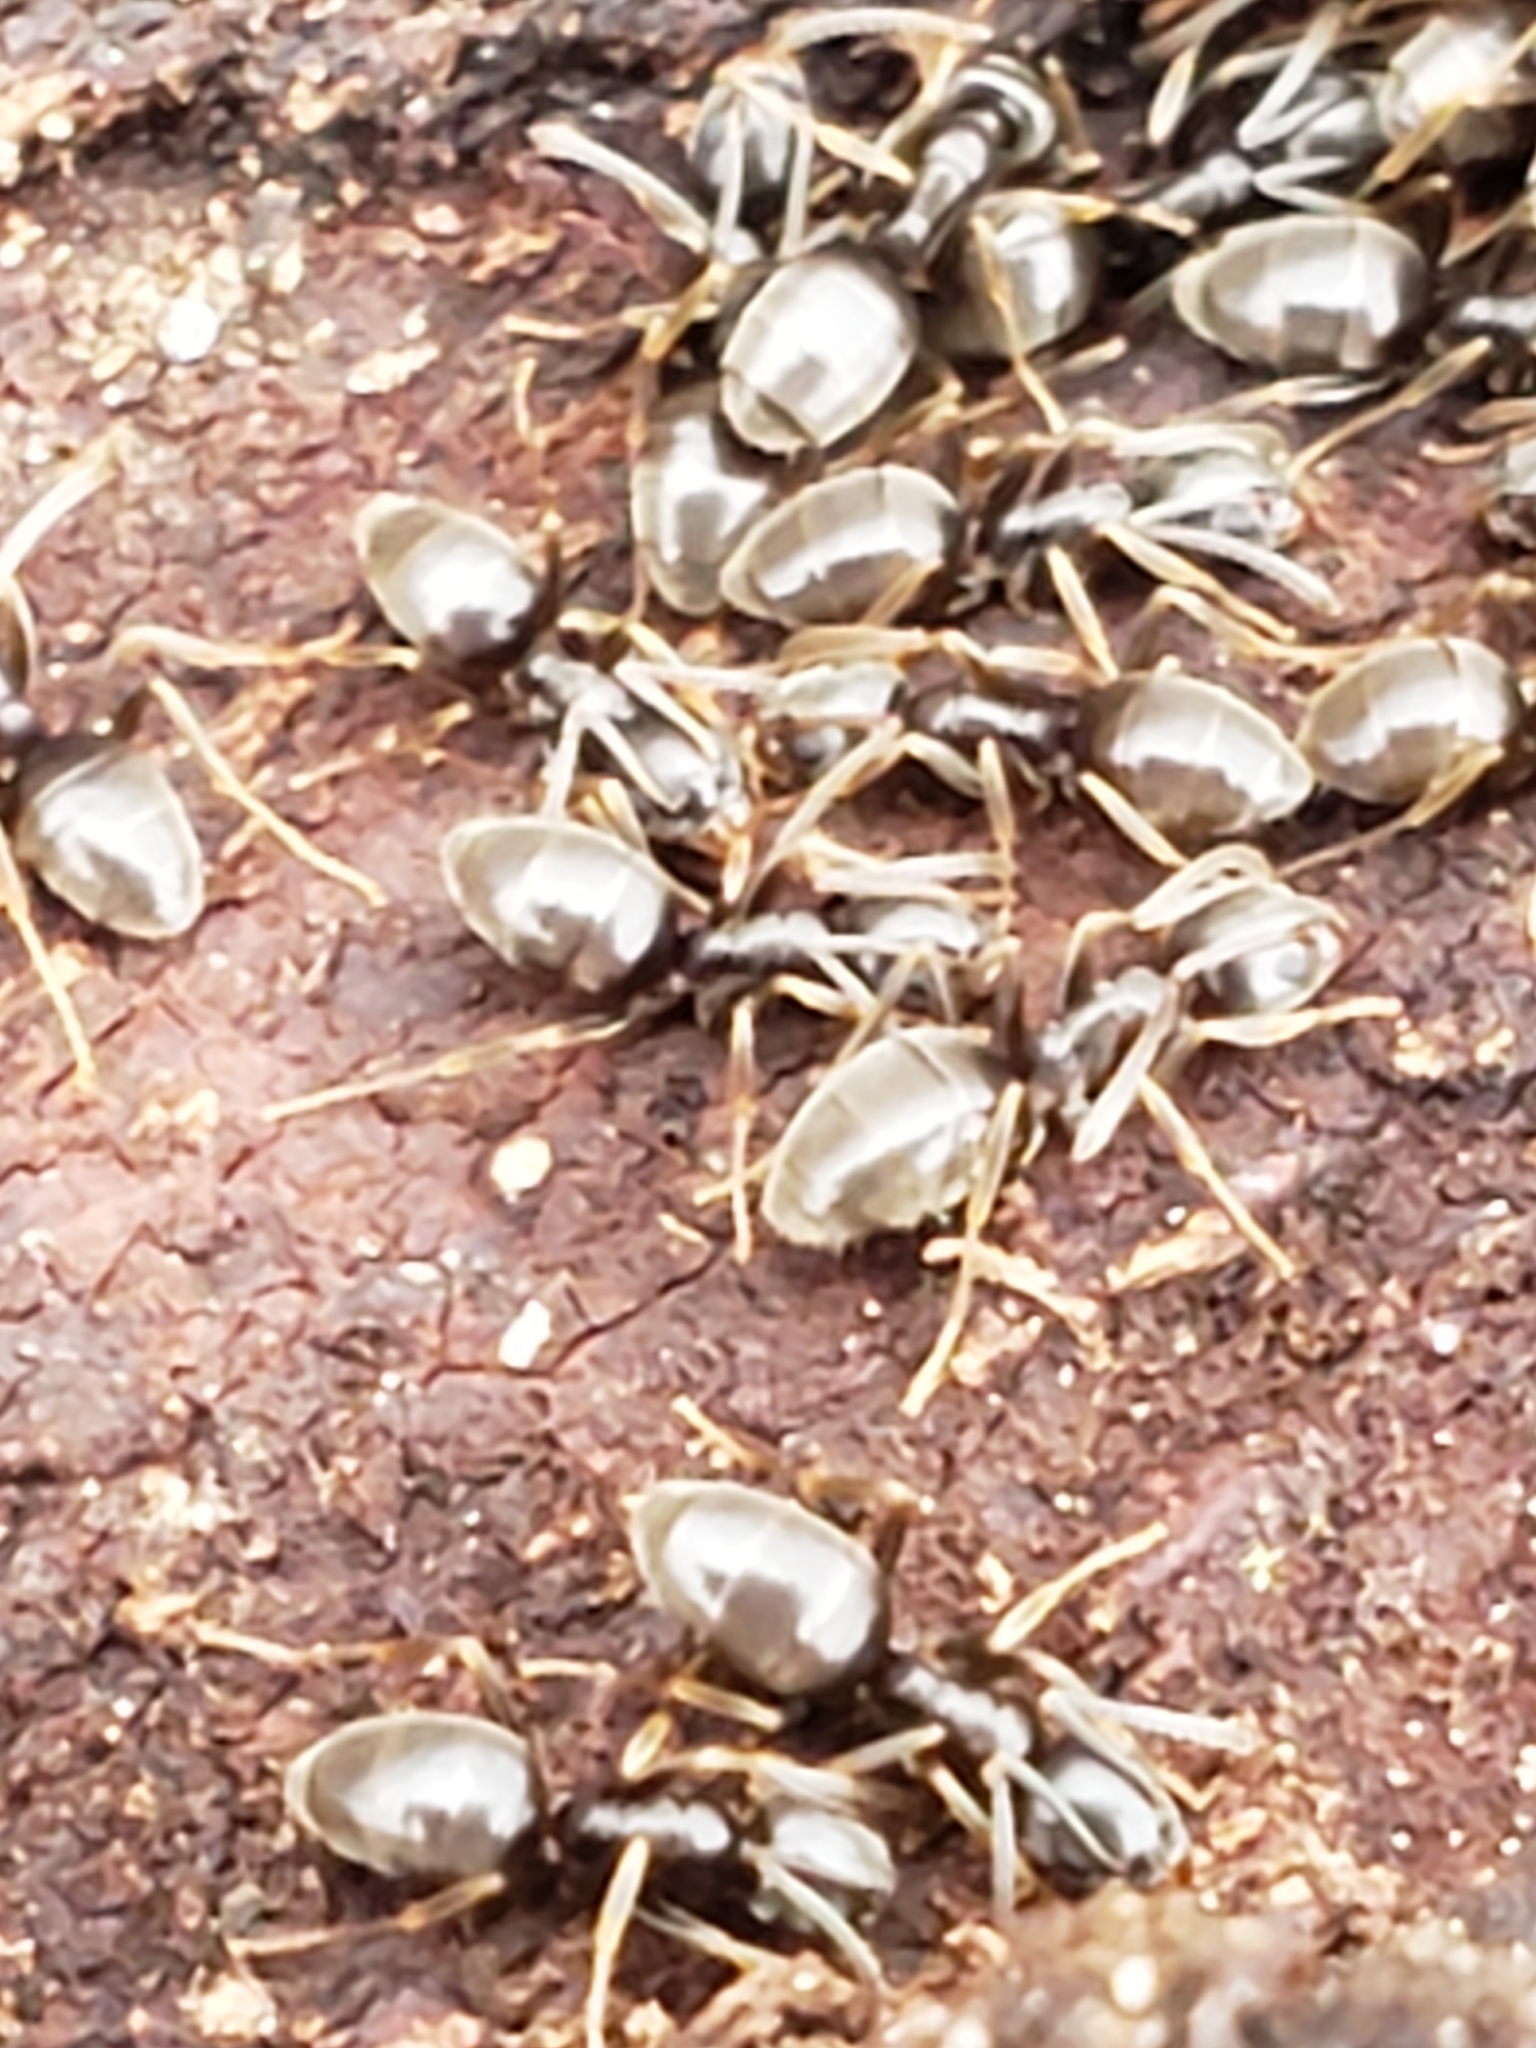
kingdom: Animalia
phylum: Arthropoda
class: Insecta
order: Hymenoptera
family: Formicidae
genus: Tapinoma
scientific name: Tapinoma sessile
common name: Odorous house ant
